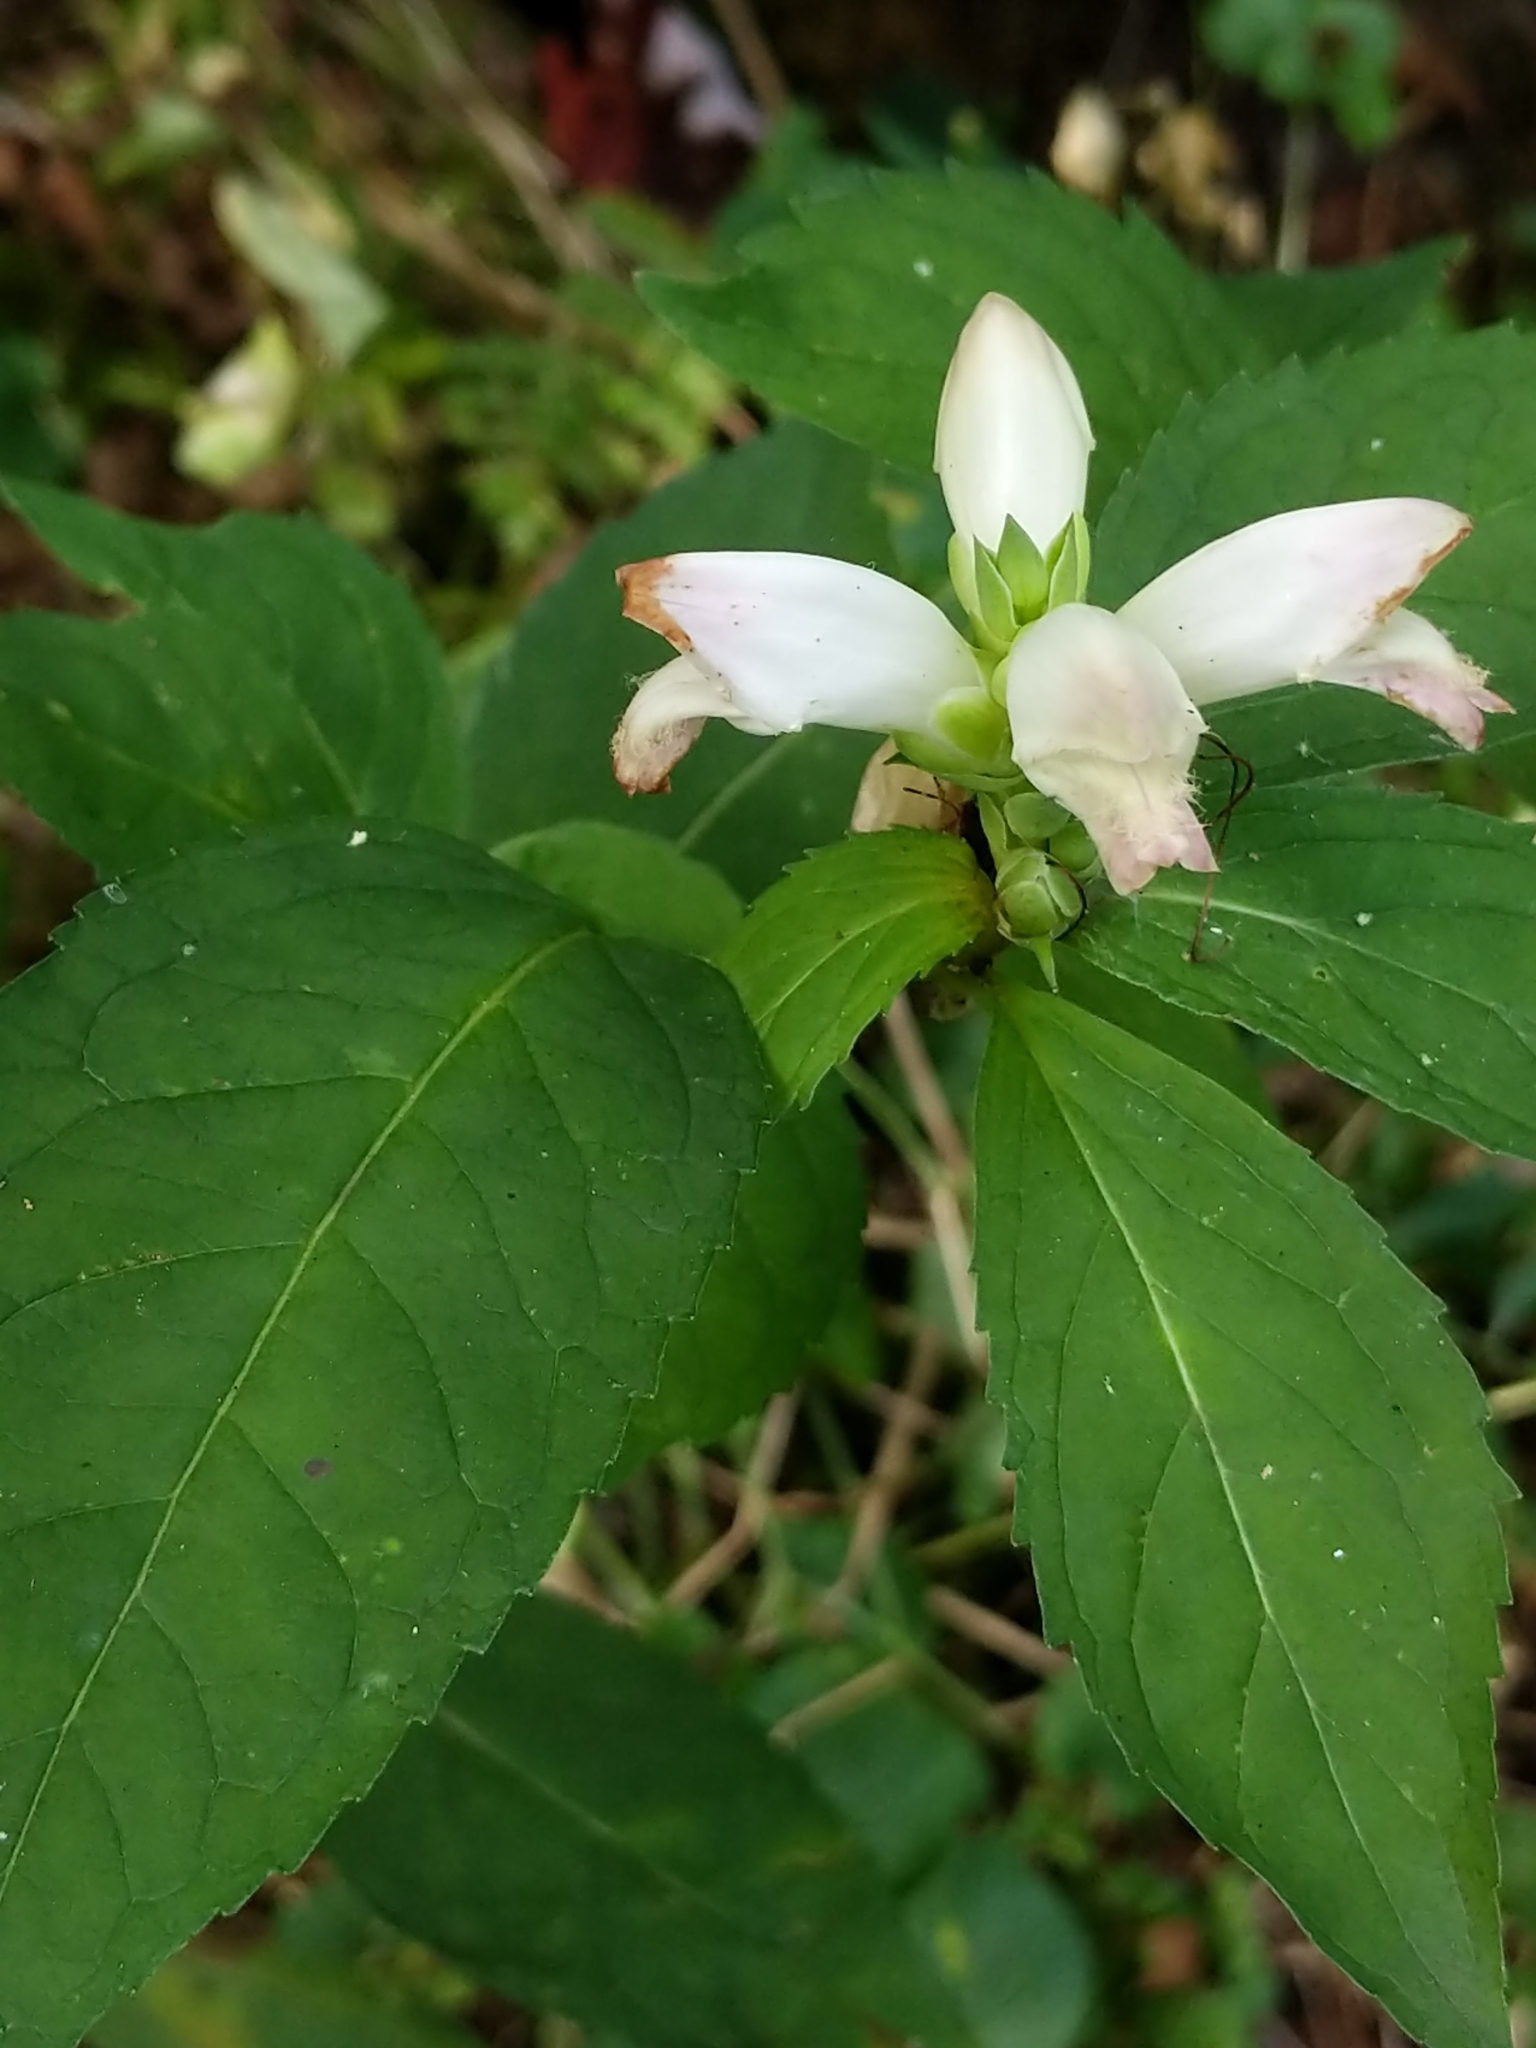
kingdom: Plantae
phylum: Tracheophyta
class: Magnoliopsida
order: Lamiales
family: Plantaginaceae
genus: Chelone
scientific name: Chelone glabra
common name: Snakehead
